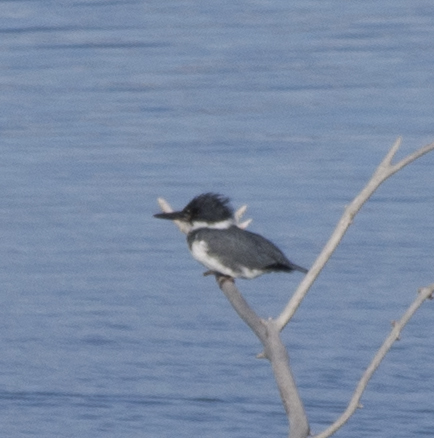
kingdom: Animalia
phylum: Chordata
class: Aves
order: Coraciiformes
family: Alcedinidae
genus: Megaceryle
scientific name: Megaceryle alcyon
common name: Belted kingfisher
